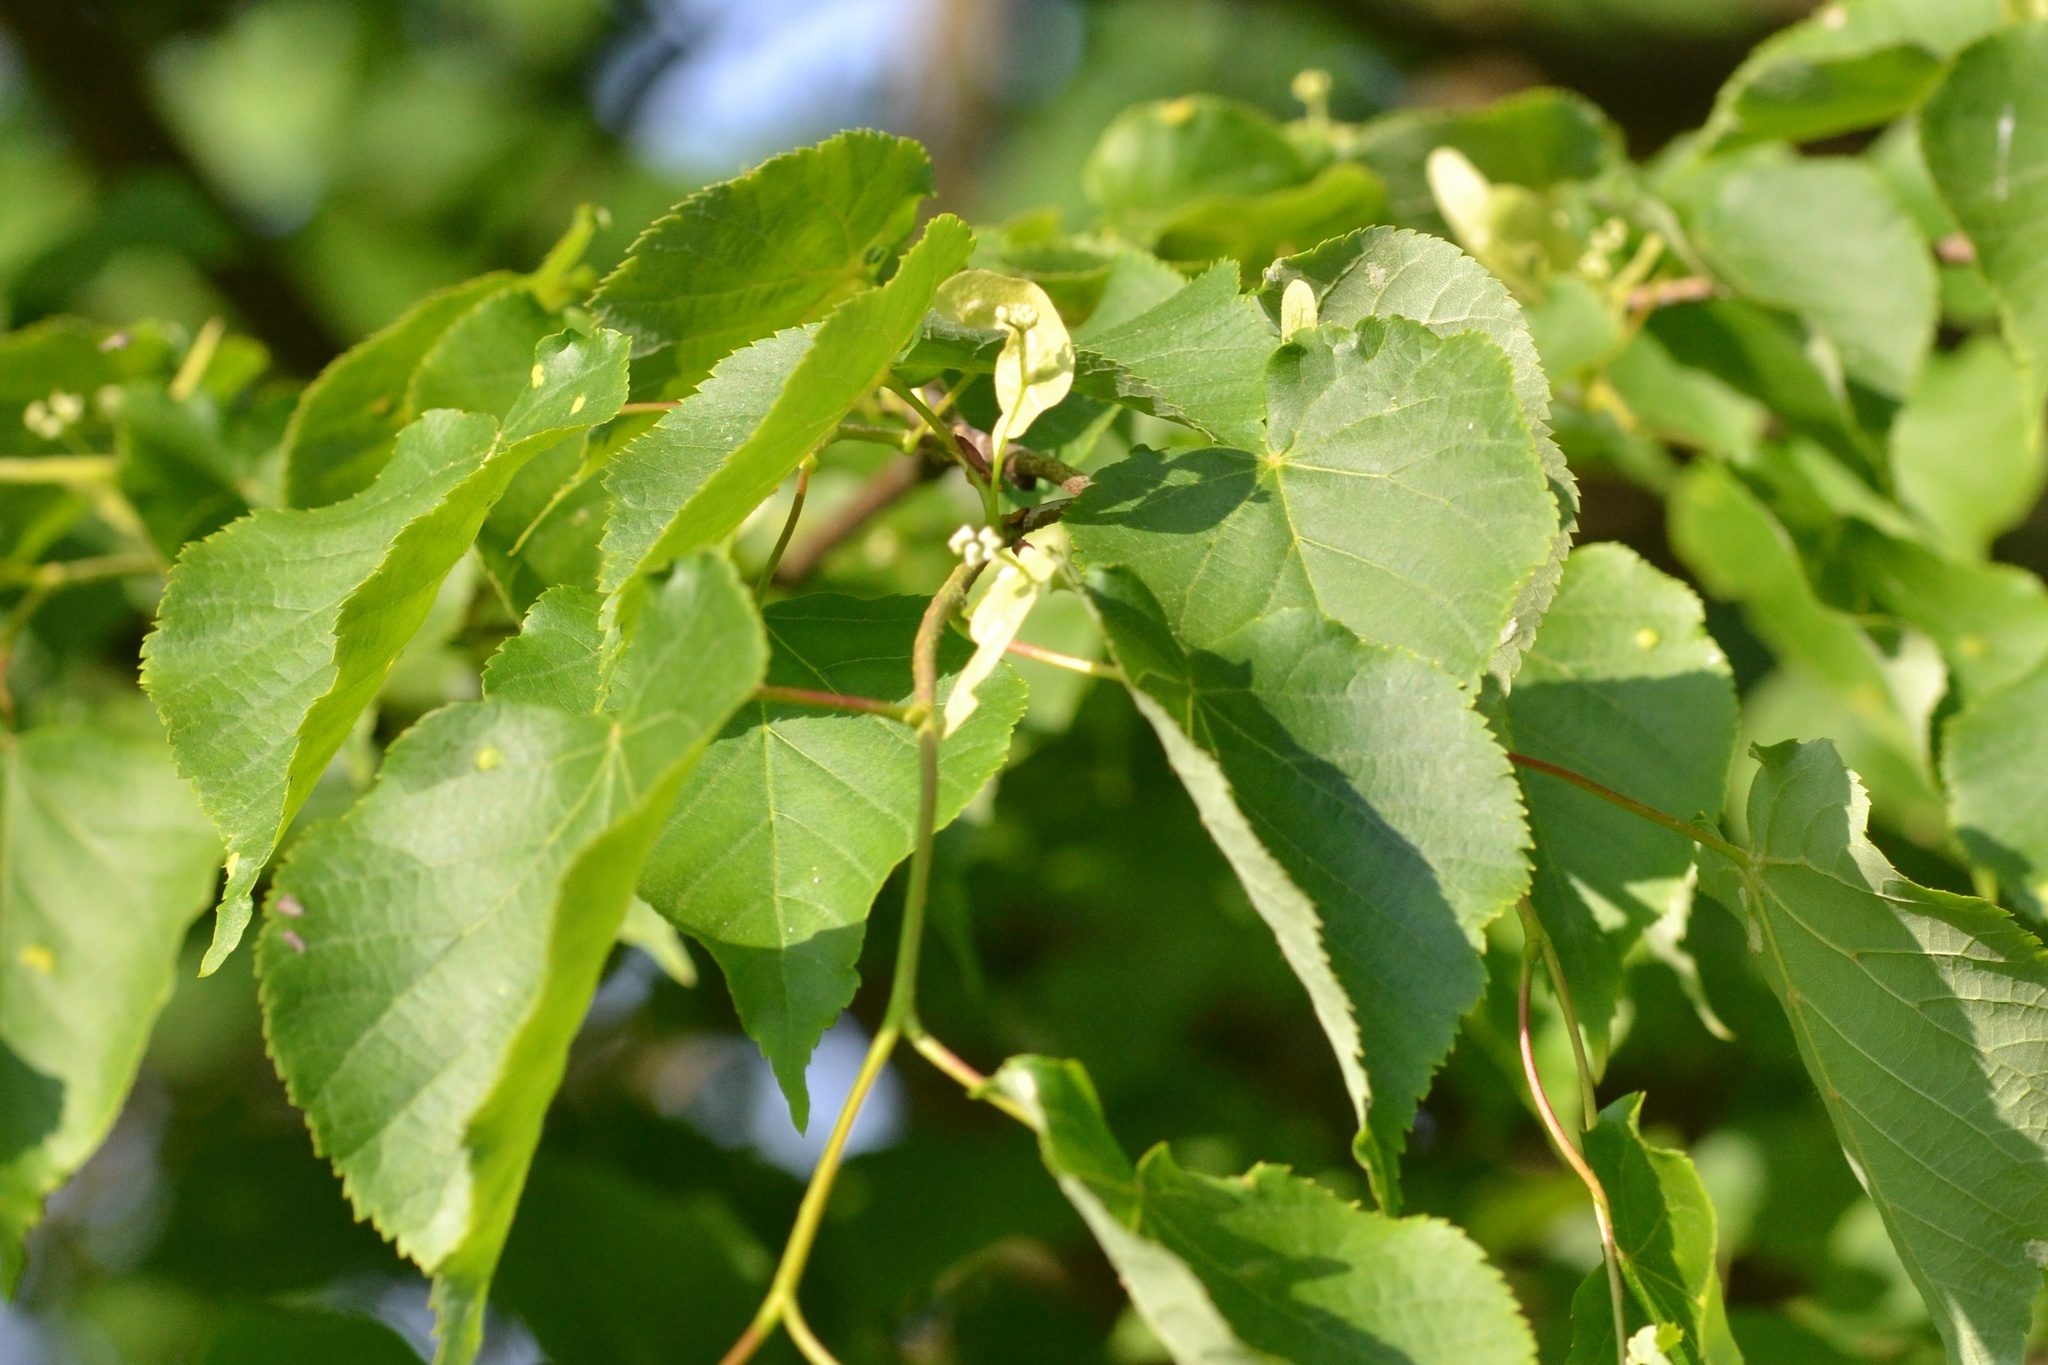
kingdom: Plantae
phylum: Tracheophyta
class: Magnoliopsida
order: Malvales
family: Malvaceae
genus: Tilia
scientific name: Tilia cordata
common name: Small-leaved lime
